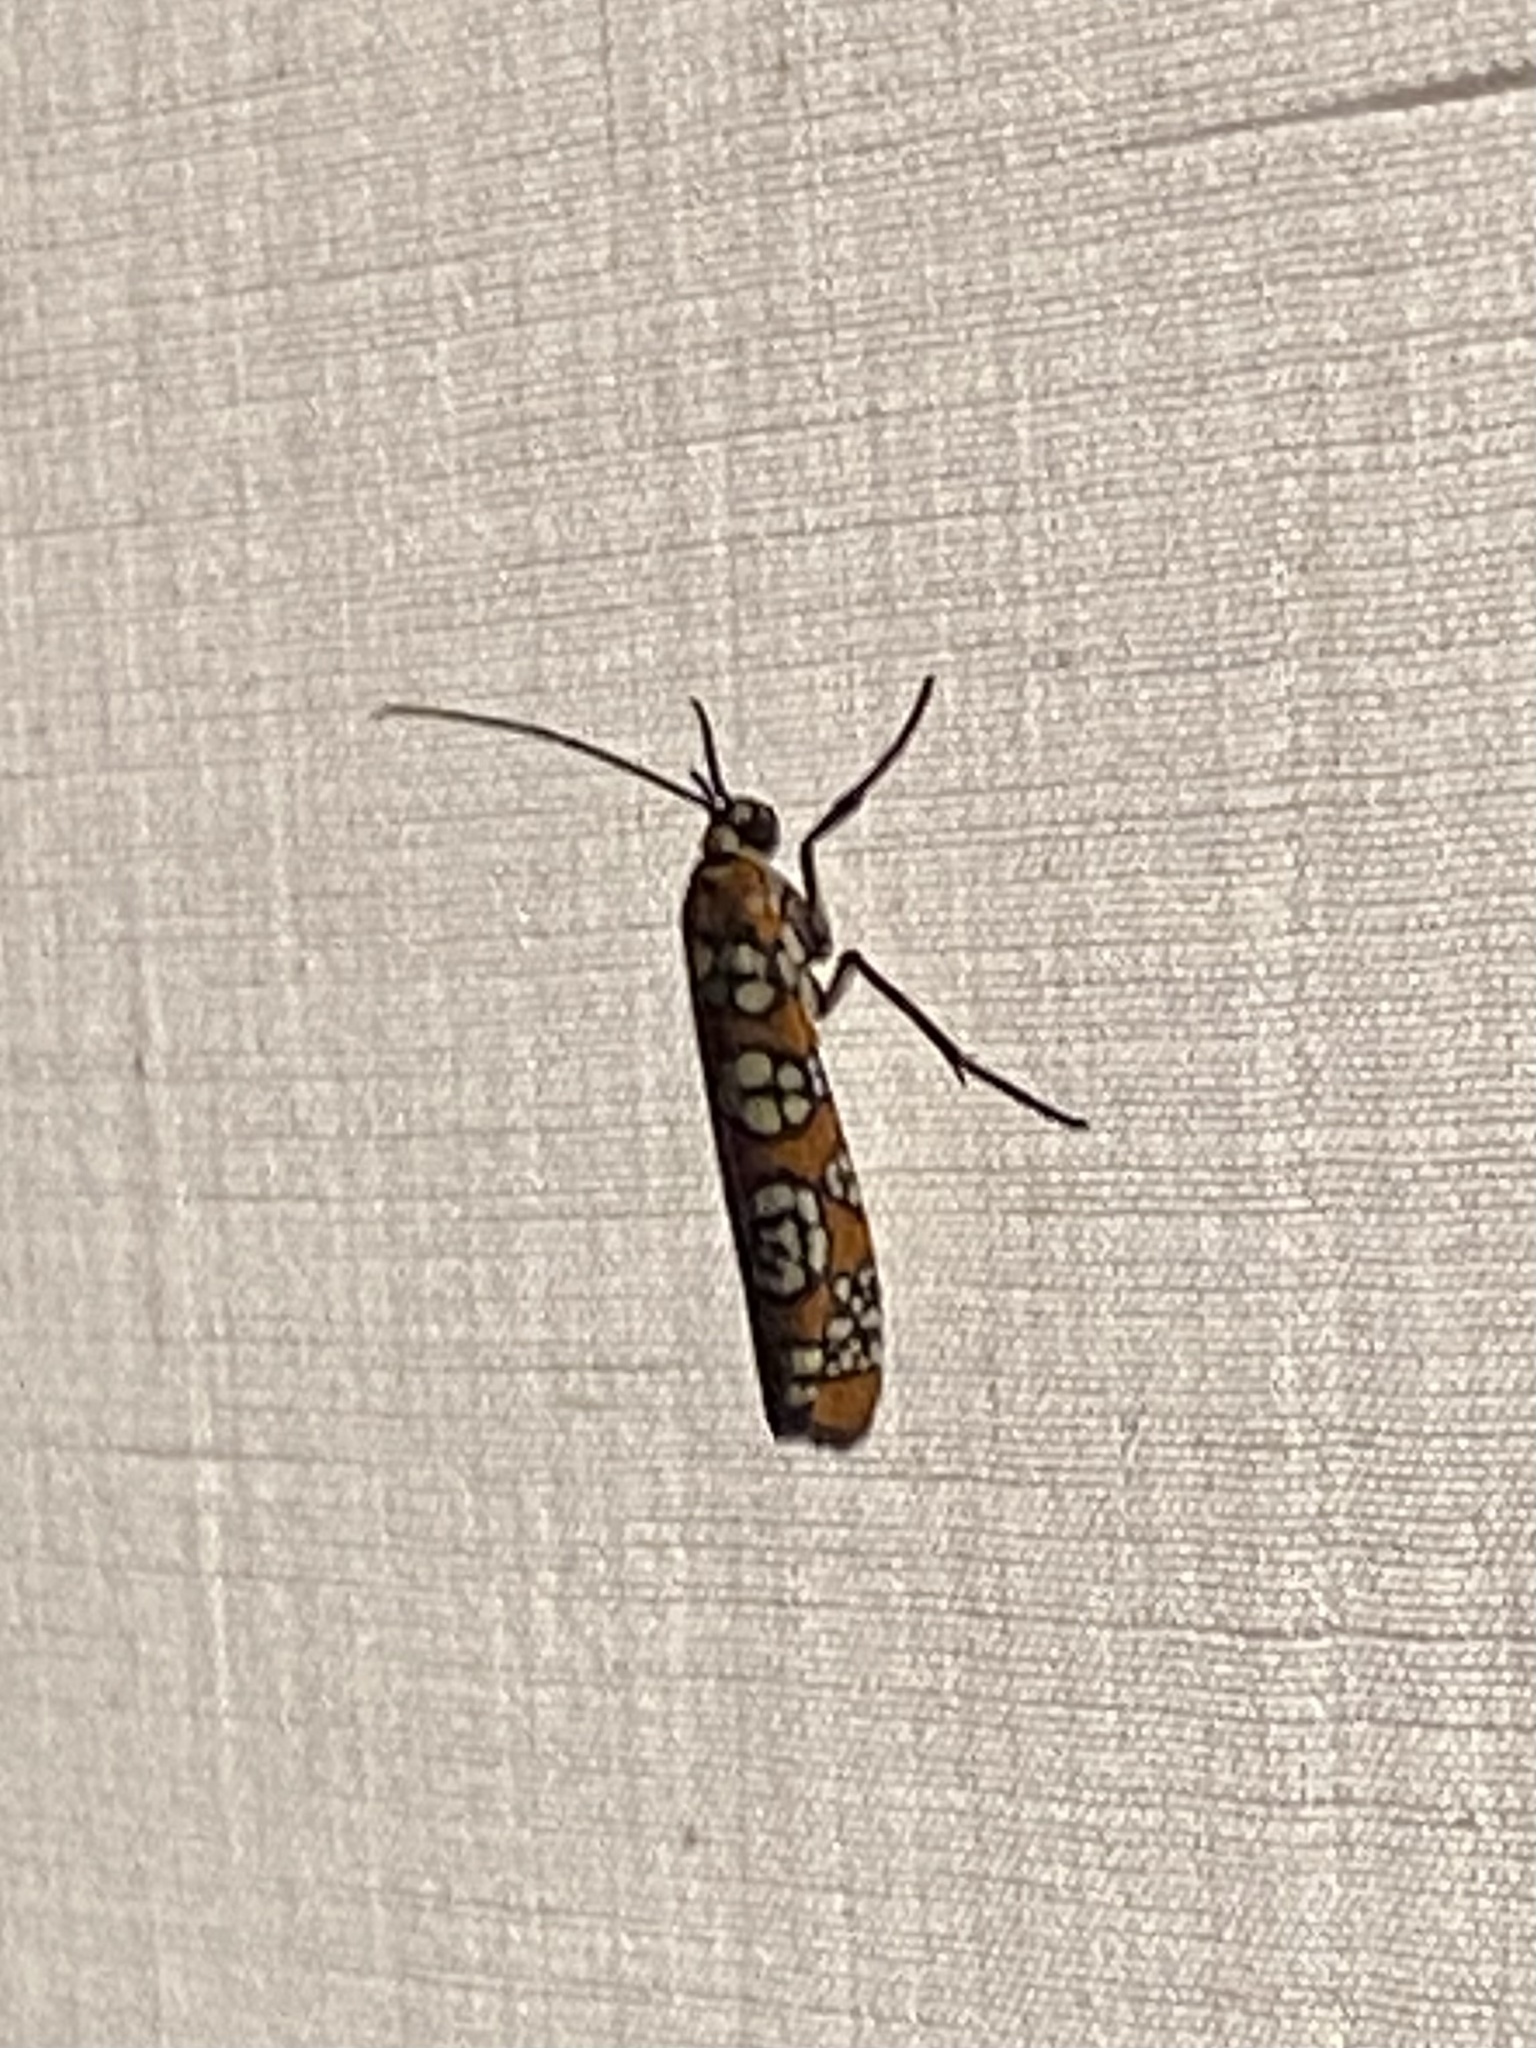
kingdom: Animalia
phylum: Arthropoda
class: Insecta
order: Lepidoptera
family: Attevidae
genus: Atteva
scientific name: Atteva punctella
